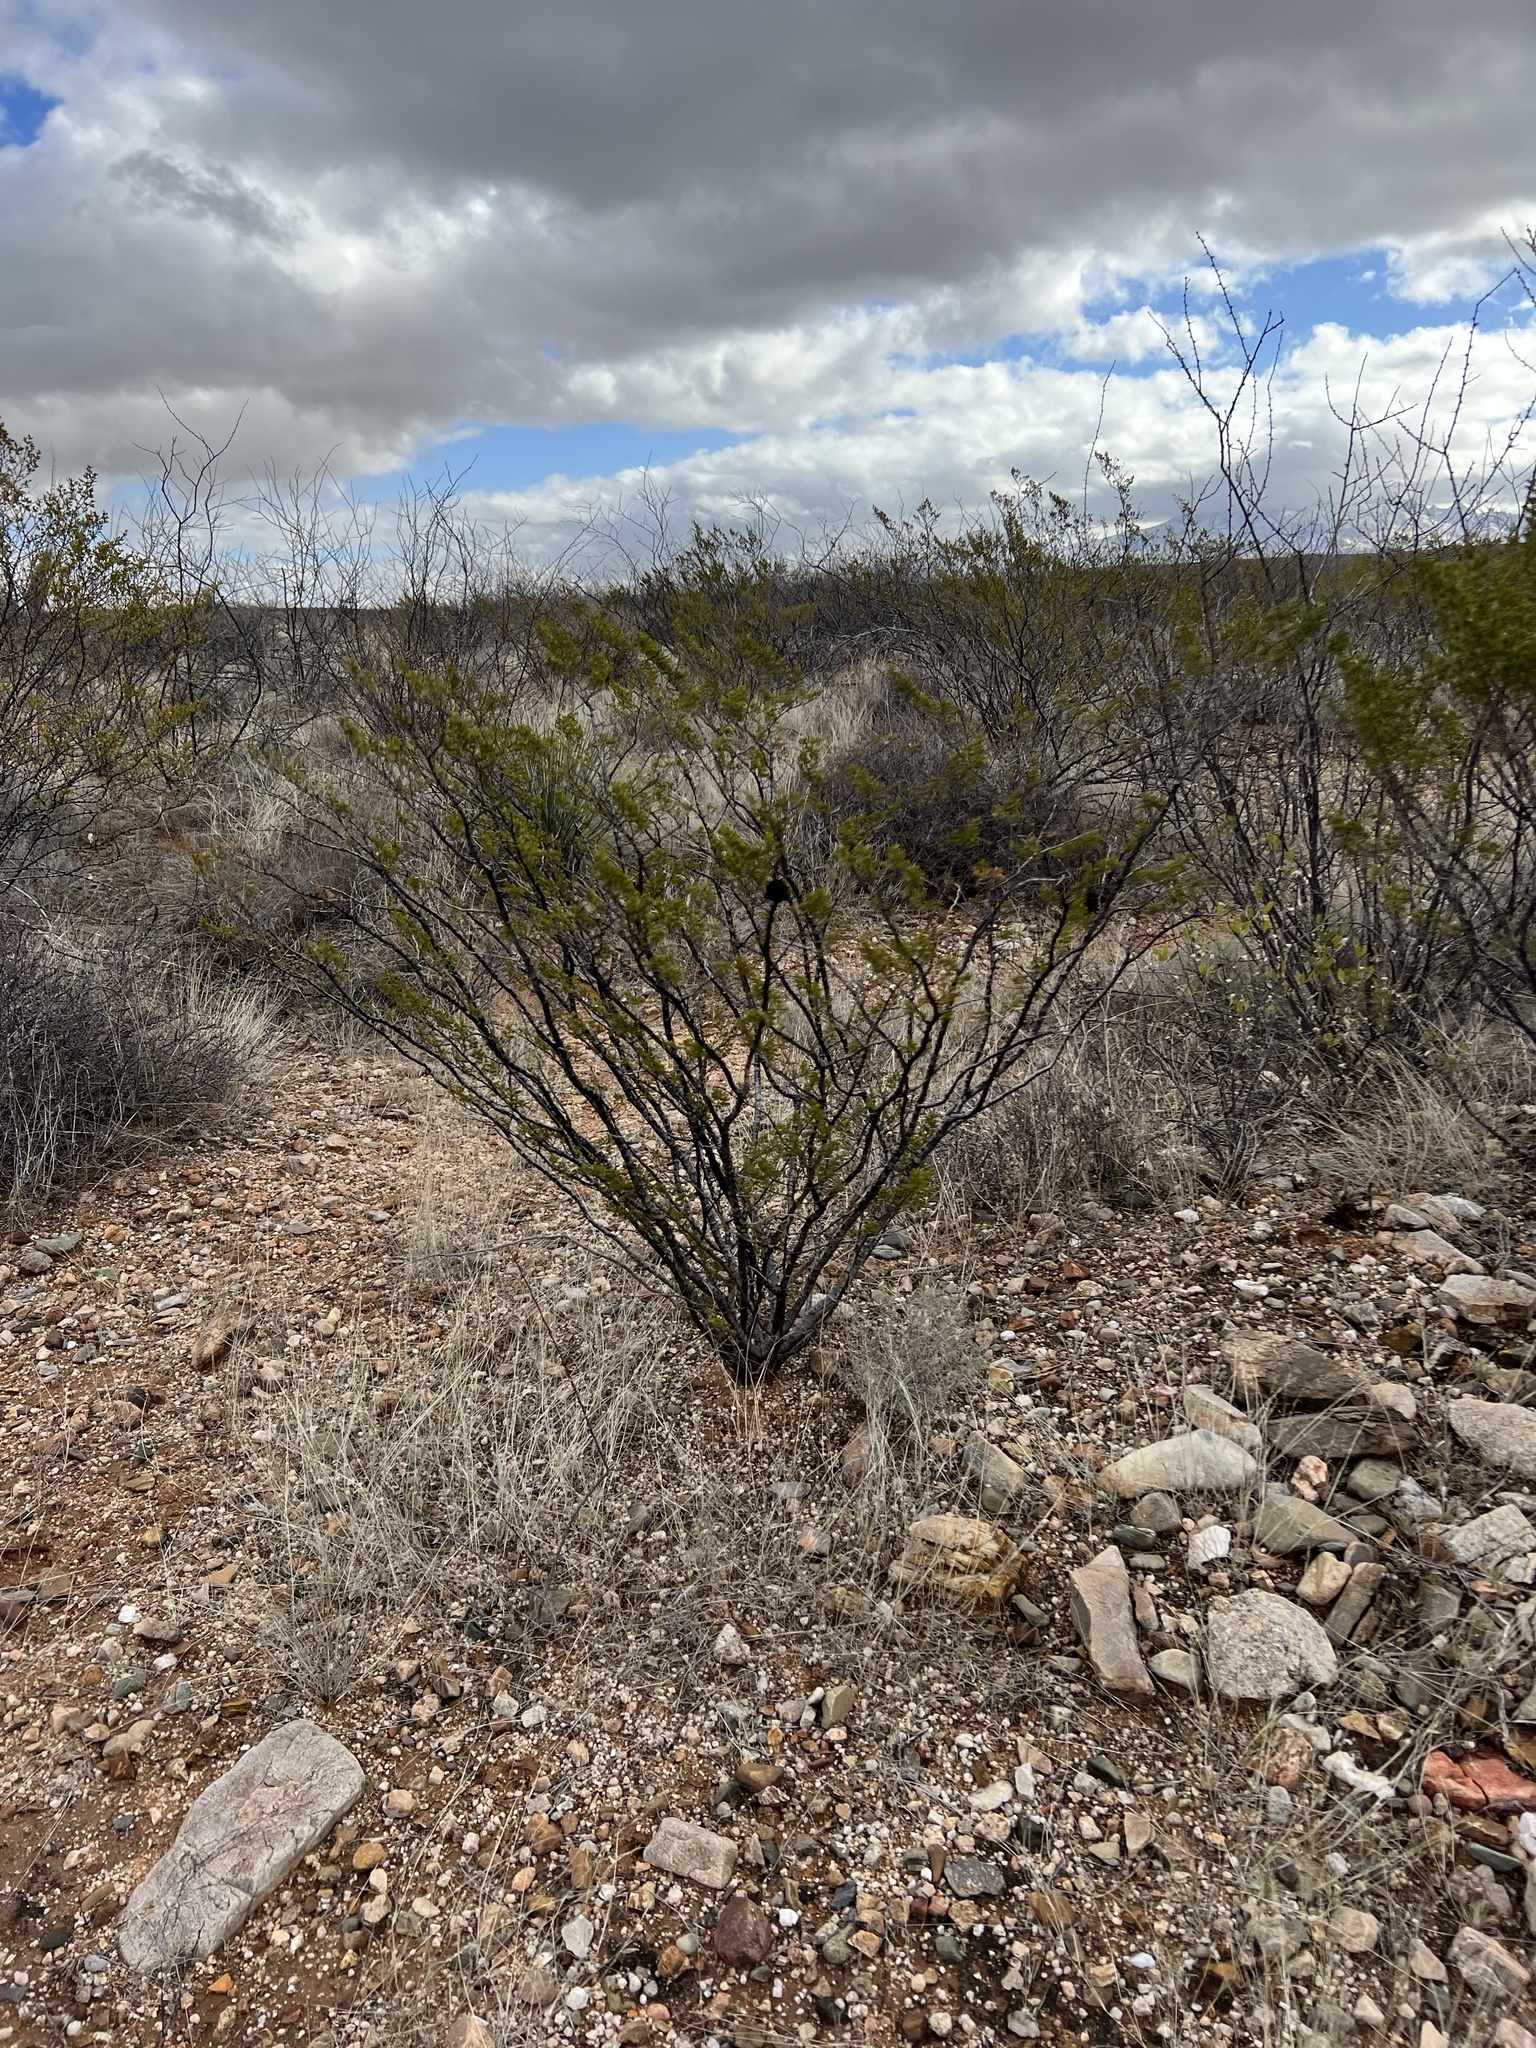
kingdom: Plantae
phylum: Tracheophyta
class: Magnoliopsida
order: Zygophyllales
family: Zygophyllaceae
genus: Larrea
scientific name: Larrea tridentata
